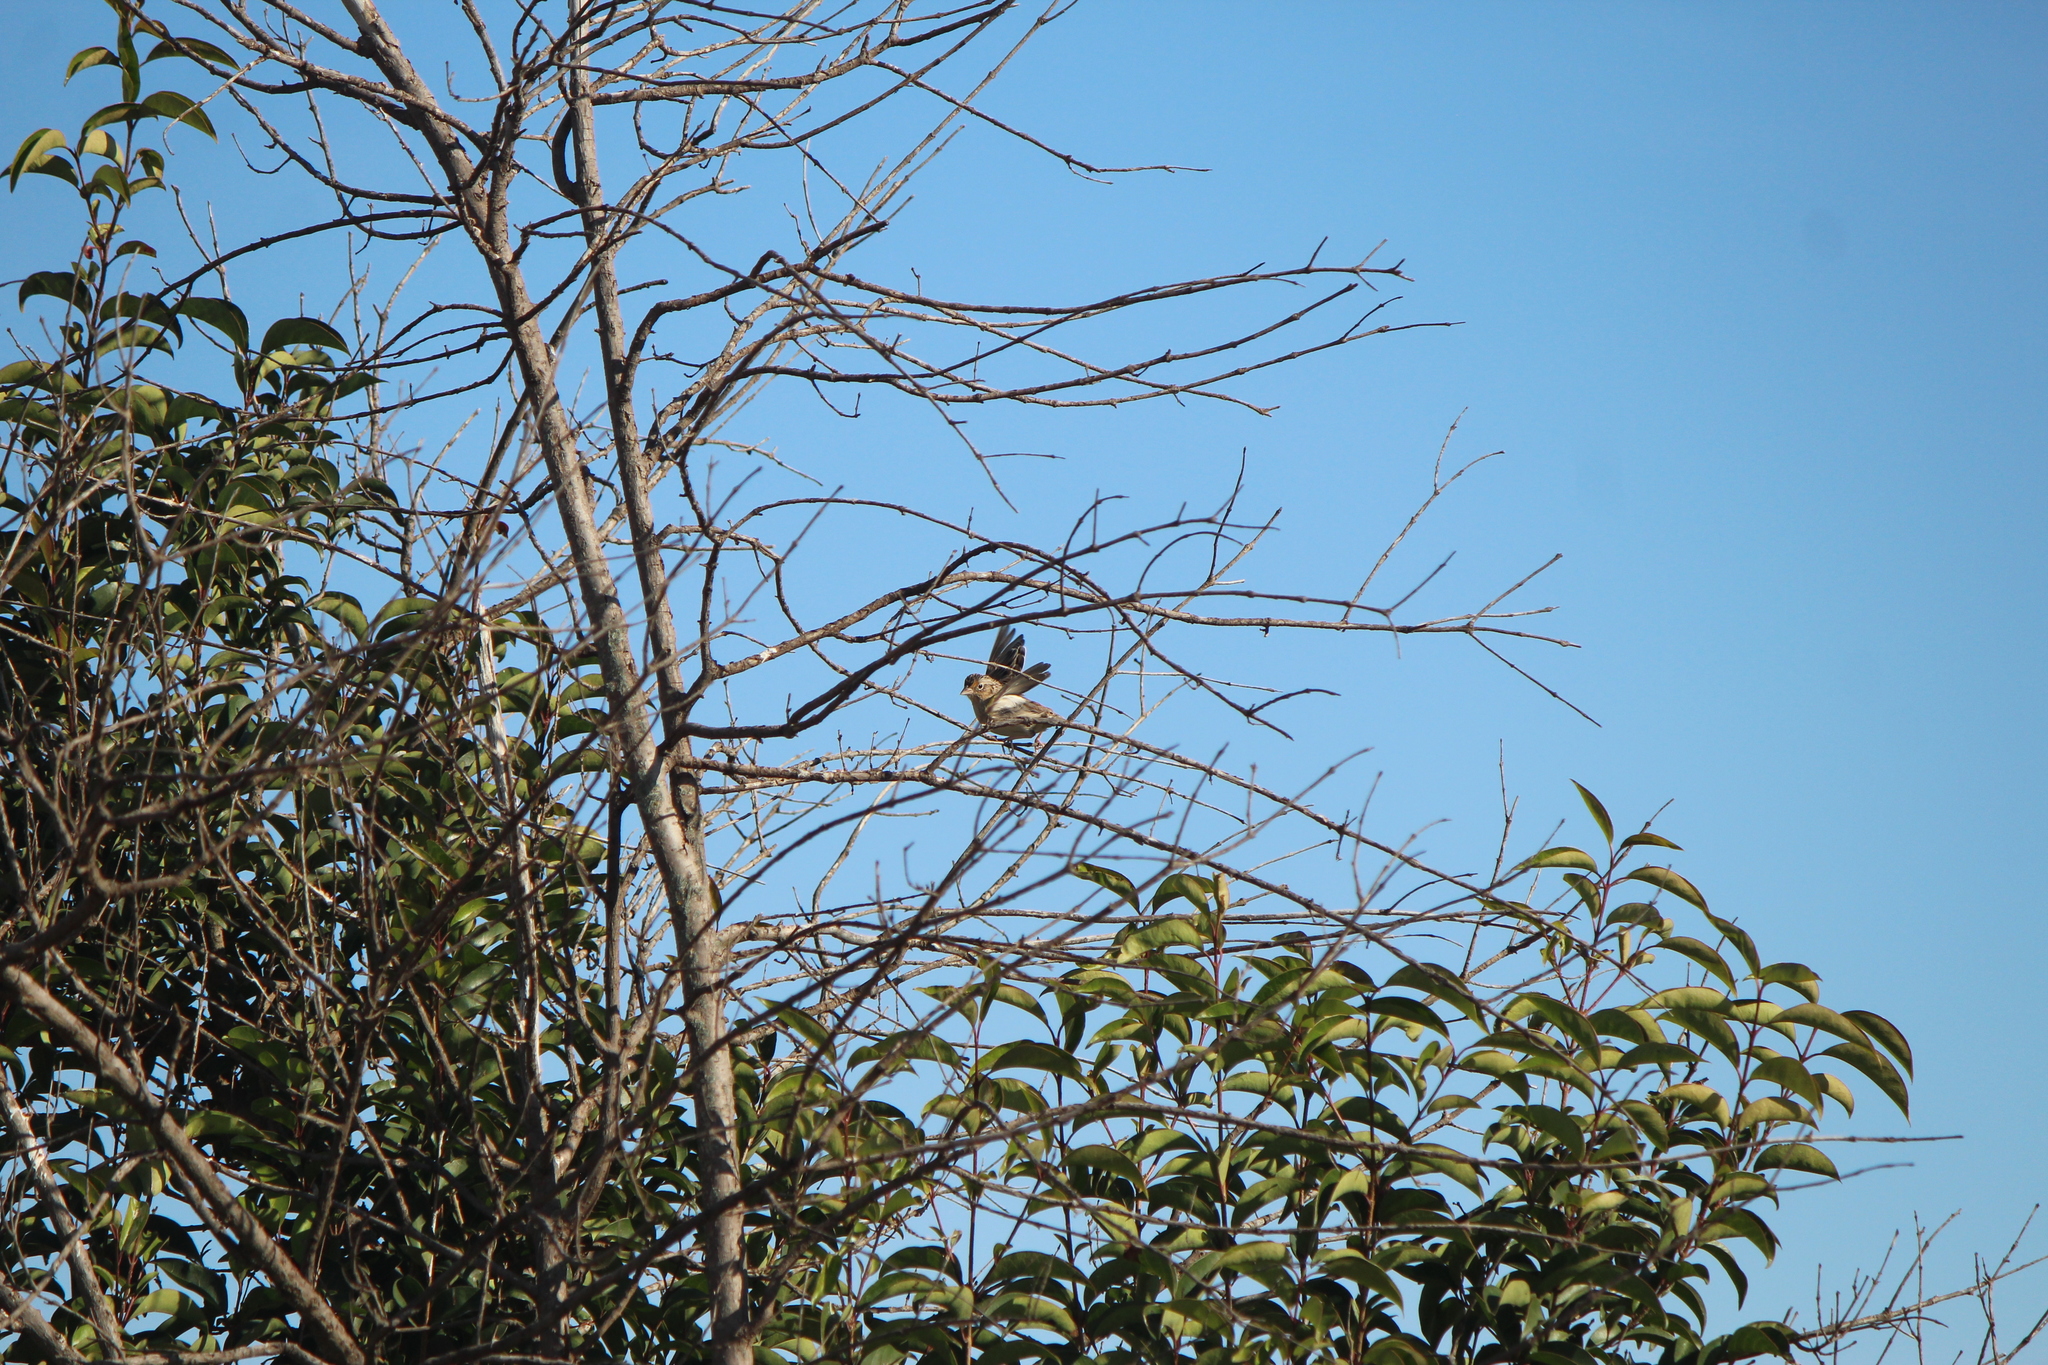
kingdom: Animalia
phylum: Chordata
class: Aves
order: Passeriformes
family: Passerellidae
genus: Ammodramus
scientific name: Ammodramus savannarum
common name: Grasshopper sparrow
